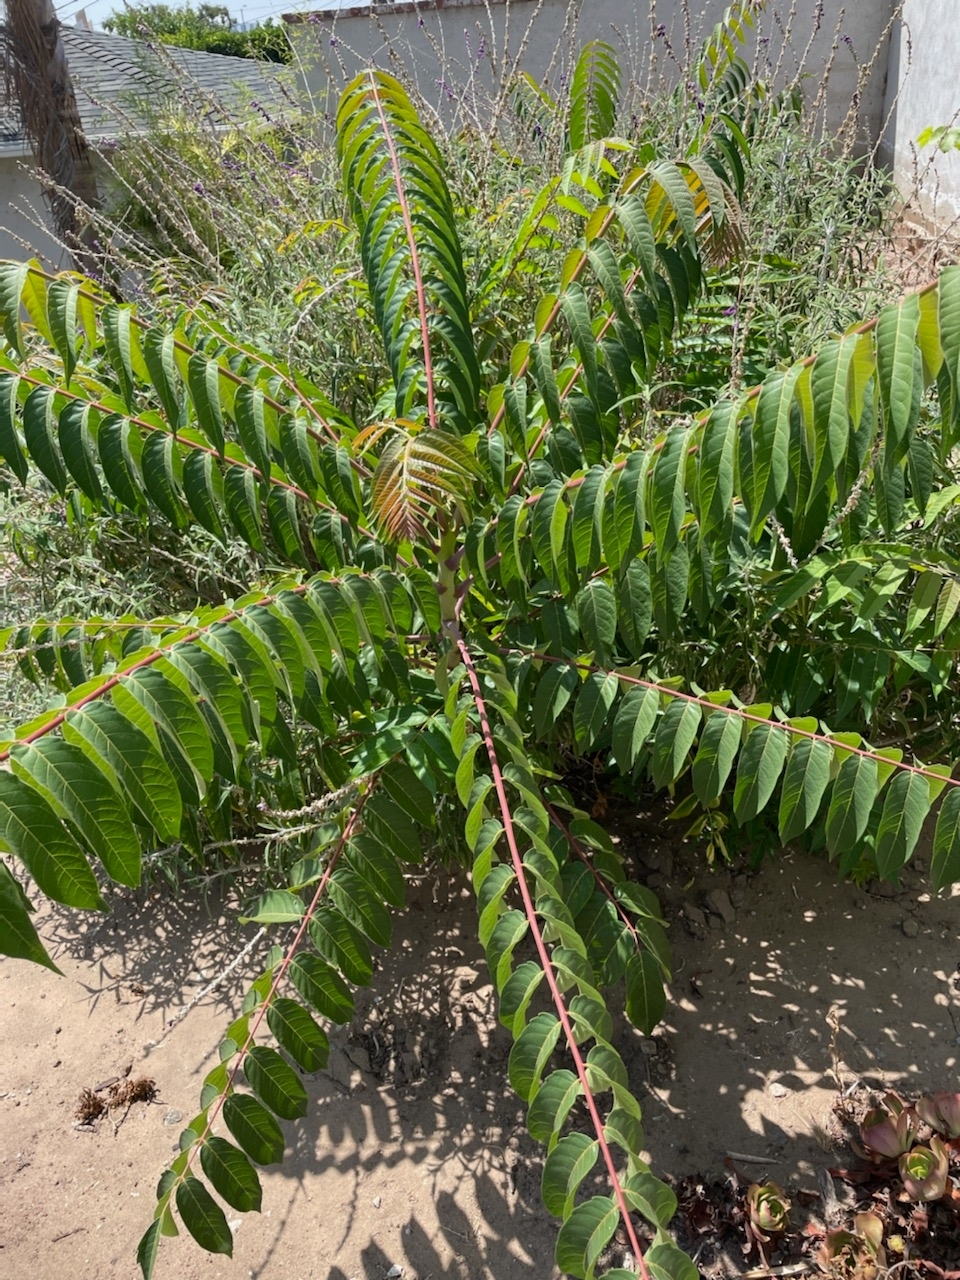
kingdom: Plantae
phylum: Tracheophyta
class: Magnoliopsida
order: Sapindales
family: Simaroubaceae
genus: Ailanthus
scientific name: Ailanthus altissima
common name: Tree-of-heaven
